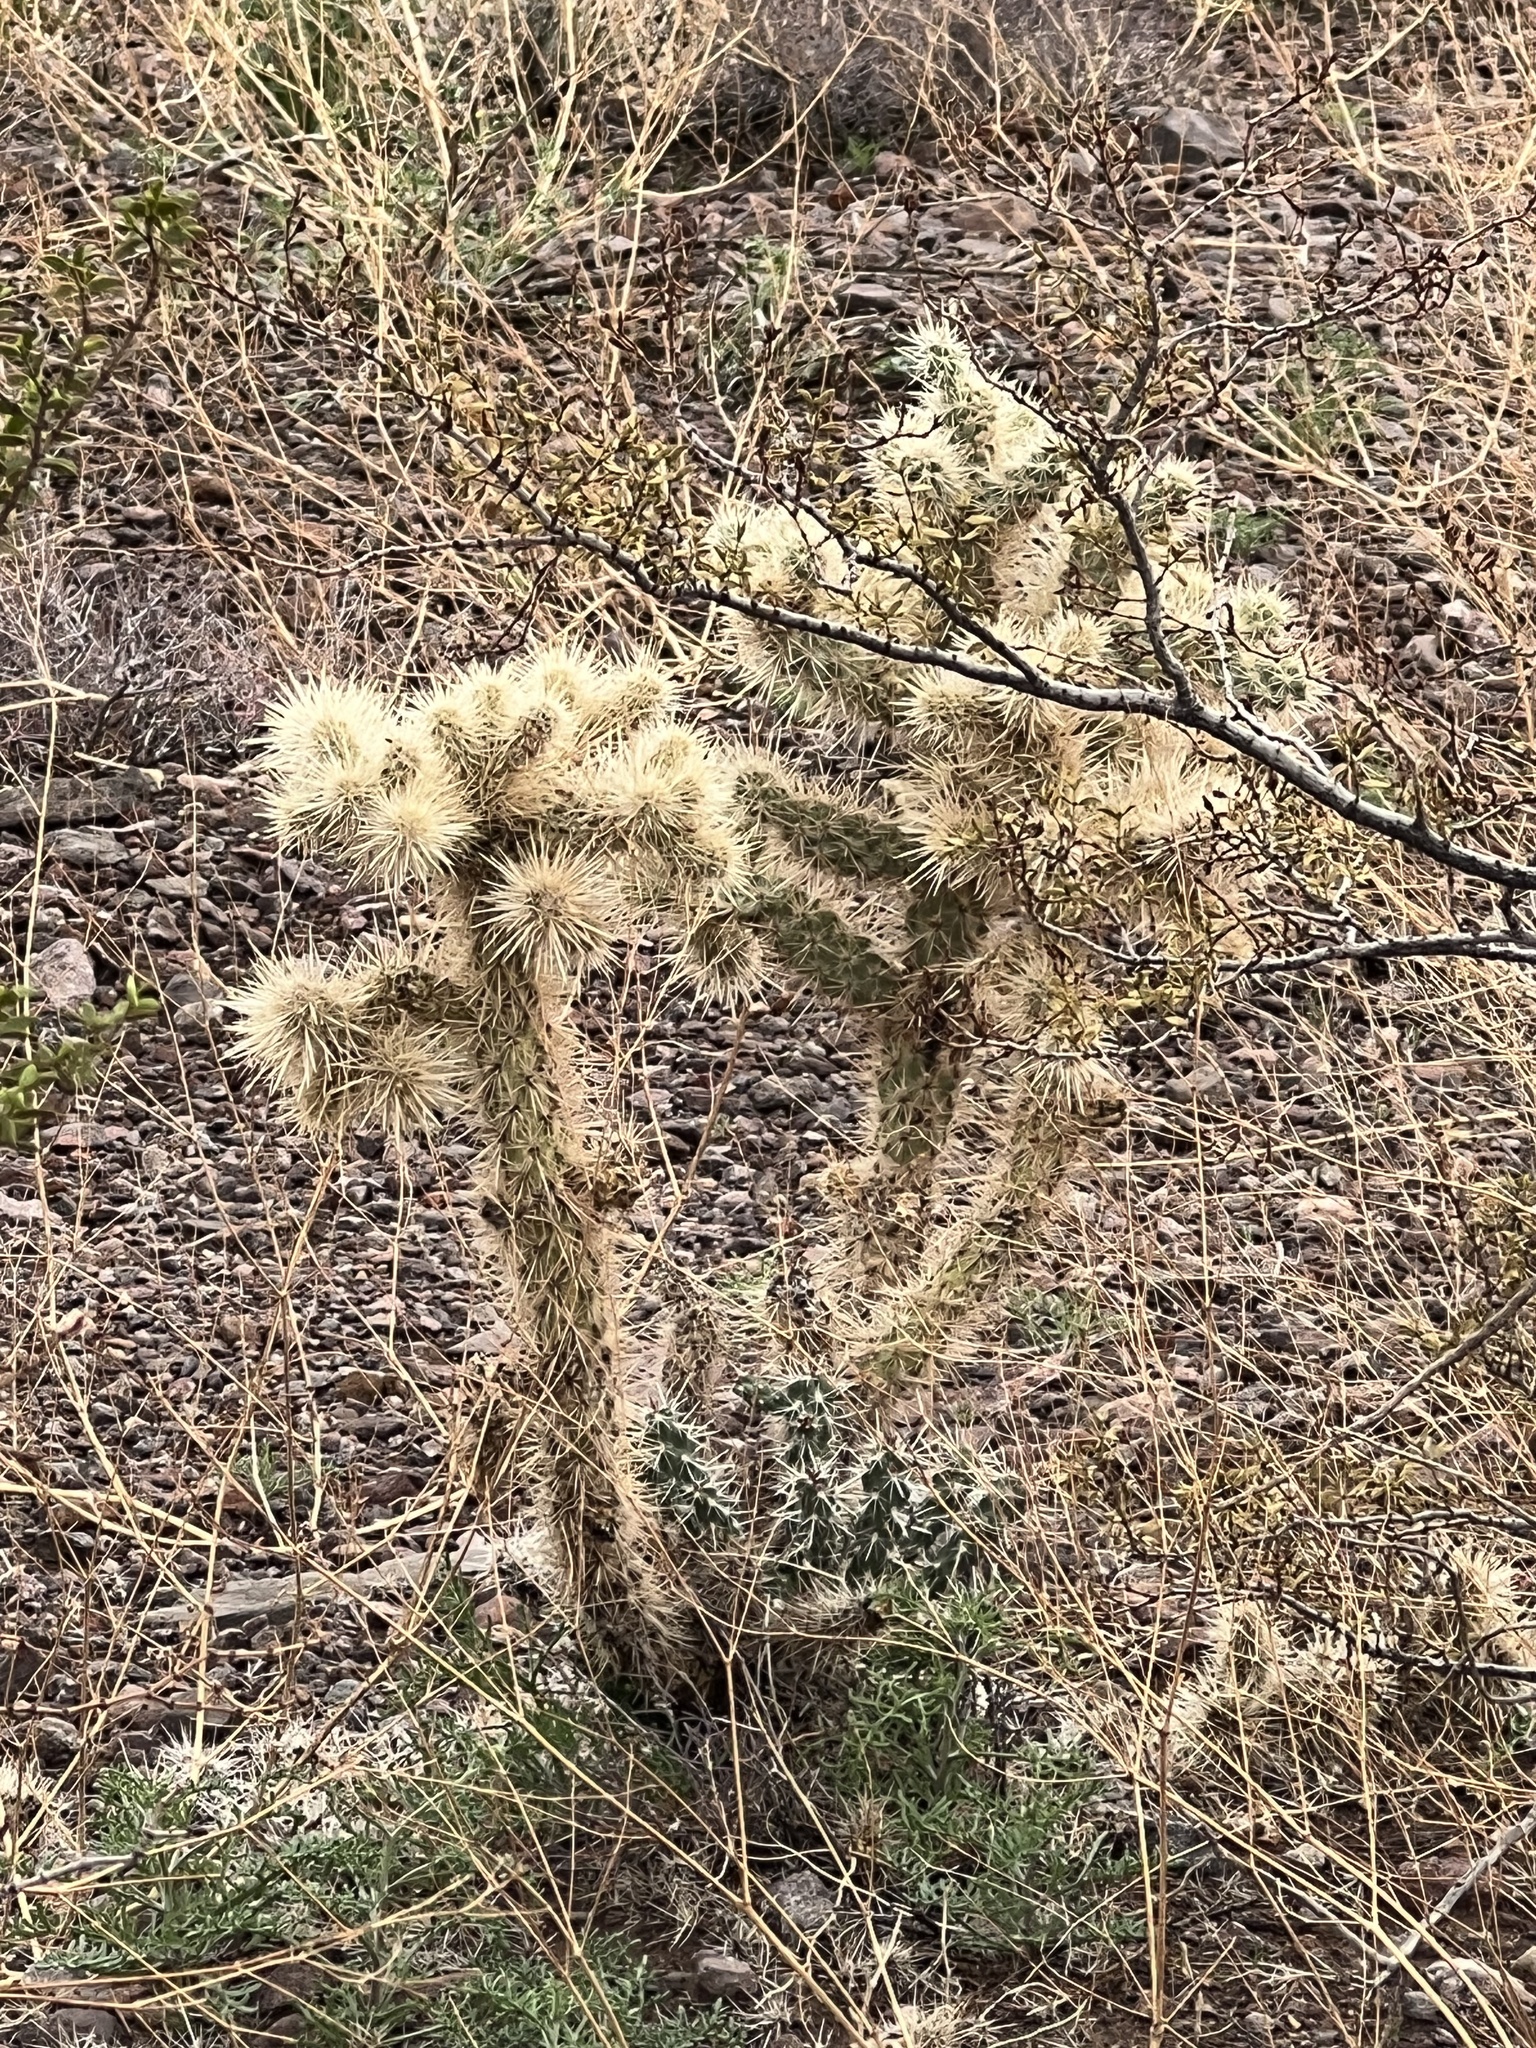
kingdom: Plantae
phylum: Tracheophyta
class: Magnoliopsida
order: Caryophyllales
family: Cactaceae
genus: Cylindropuntia
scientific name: Cylindropuntia echinocarpa
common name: Ground cholla
